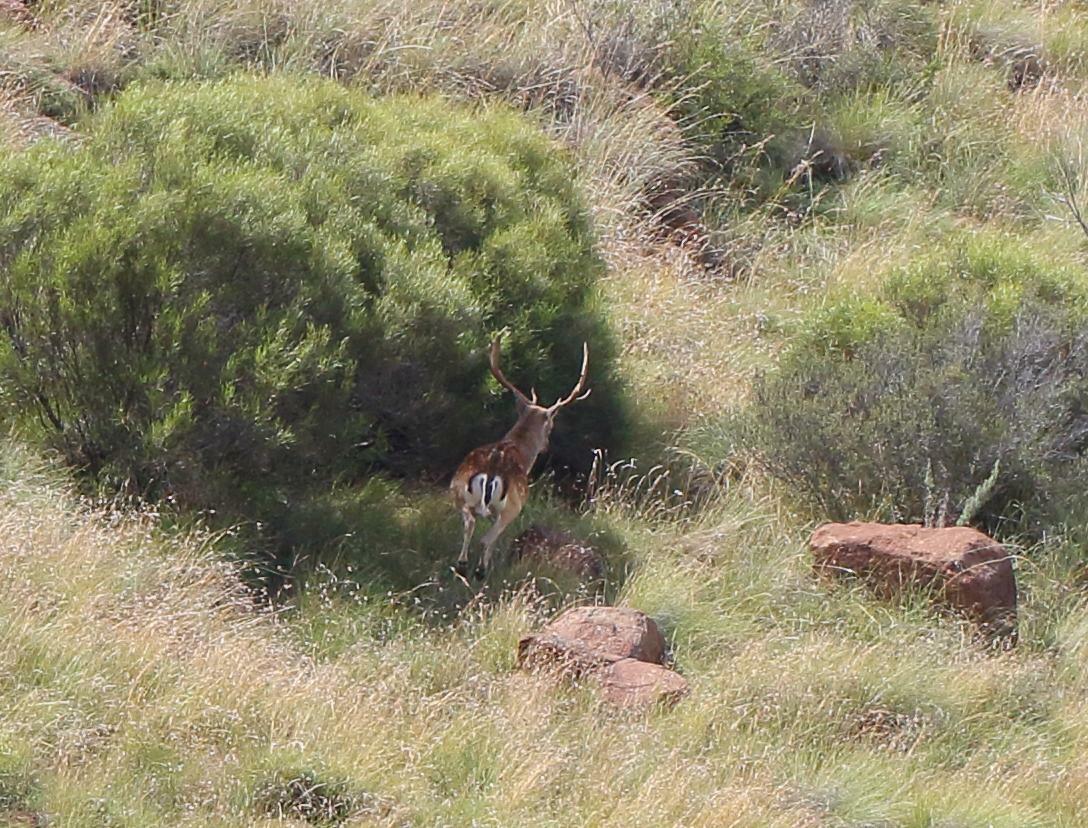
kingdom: Animalia
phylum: Chordata
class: Mammalia
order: Artiodactyla
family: Cervidae
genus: Dama
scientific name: Dama dama
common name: Fallow deer
